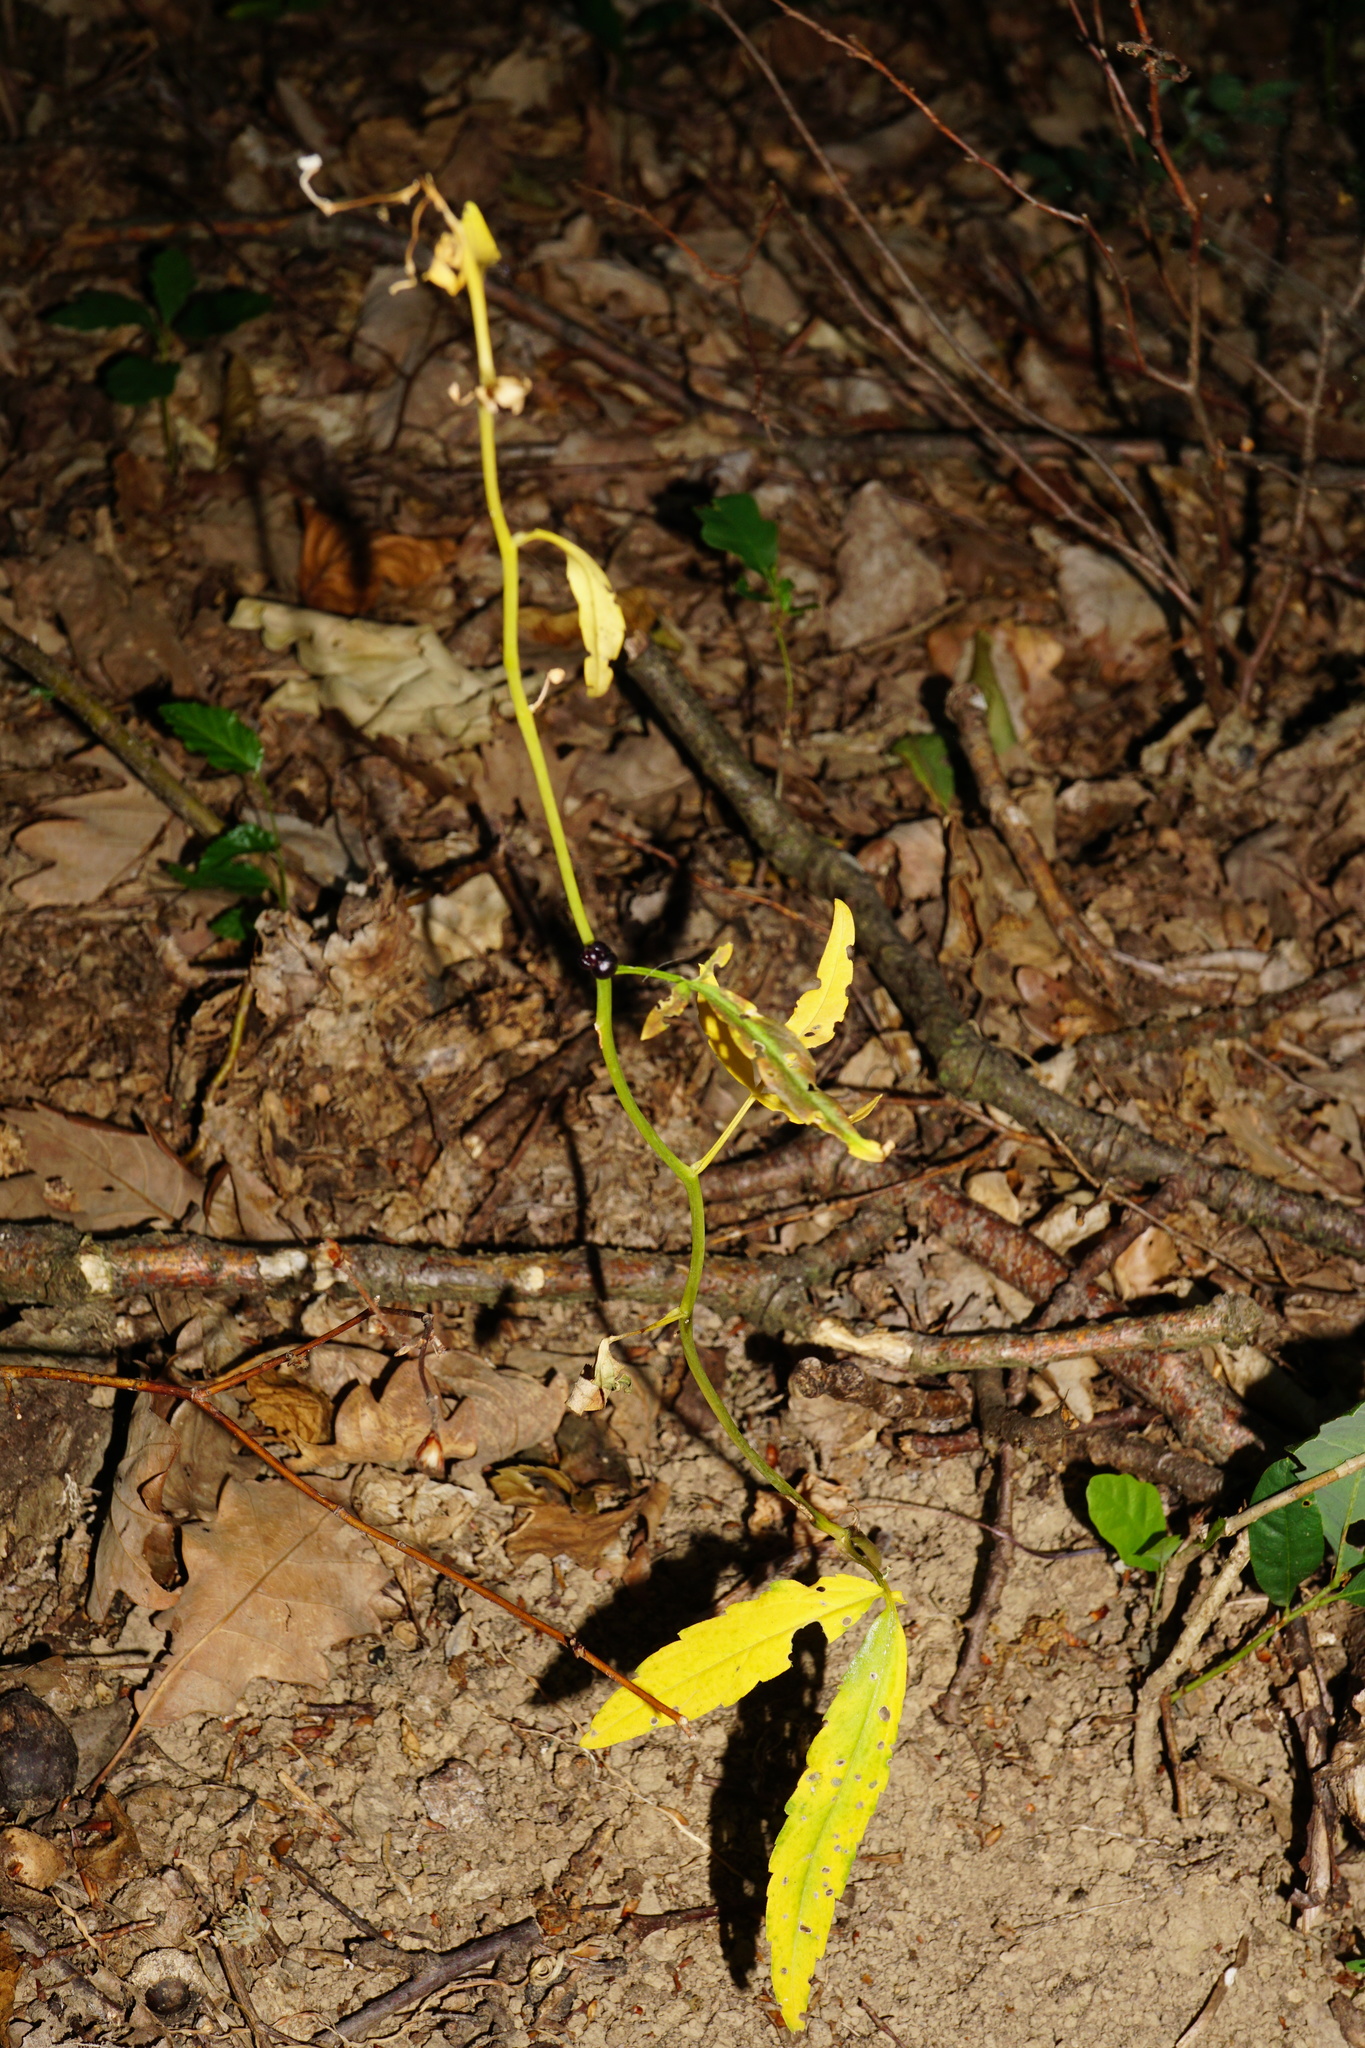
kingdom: Plantae
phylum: Tracheophyta
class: Magnoliopsida
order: Brassicales
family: Brassicaceae
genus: Cardamine
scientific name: Cardamine bulbifera
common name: Coralroot bittercress
